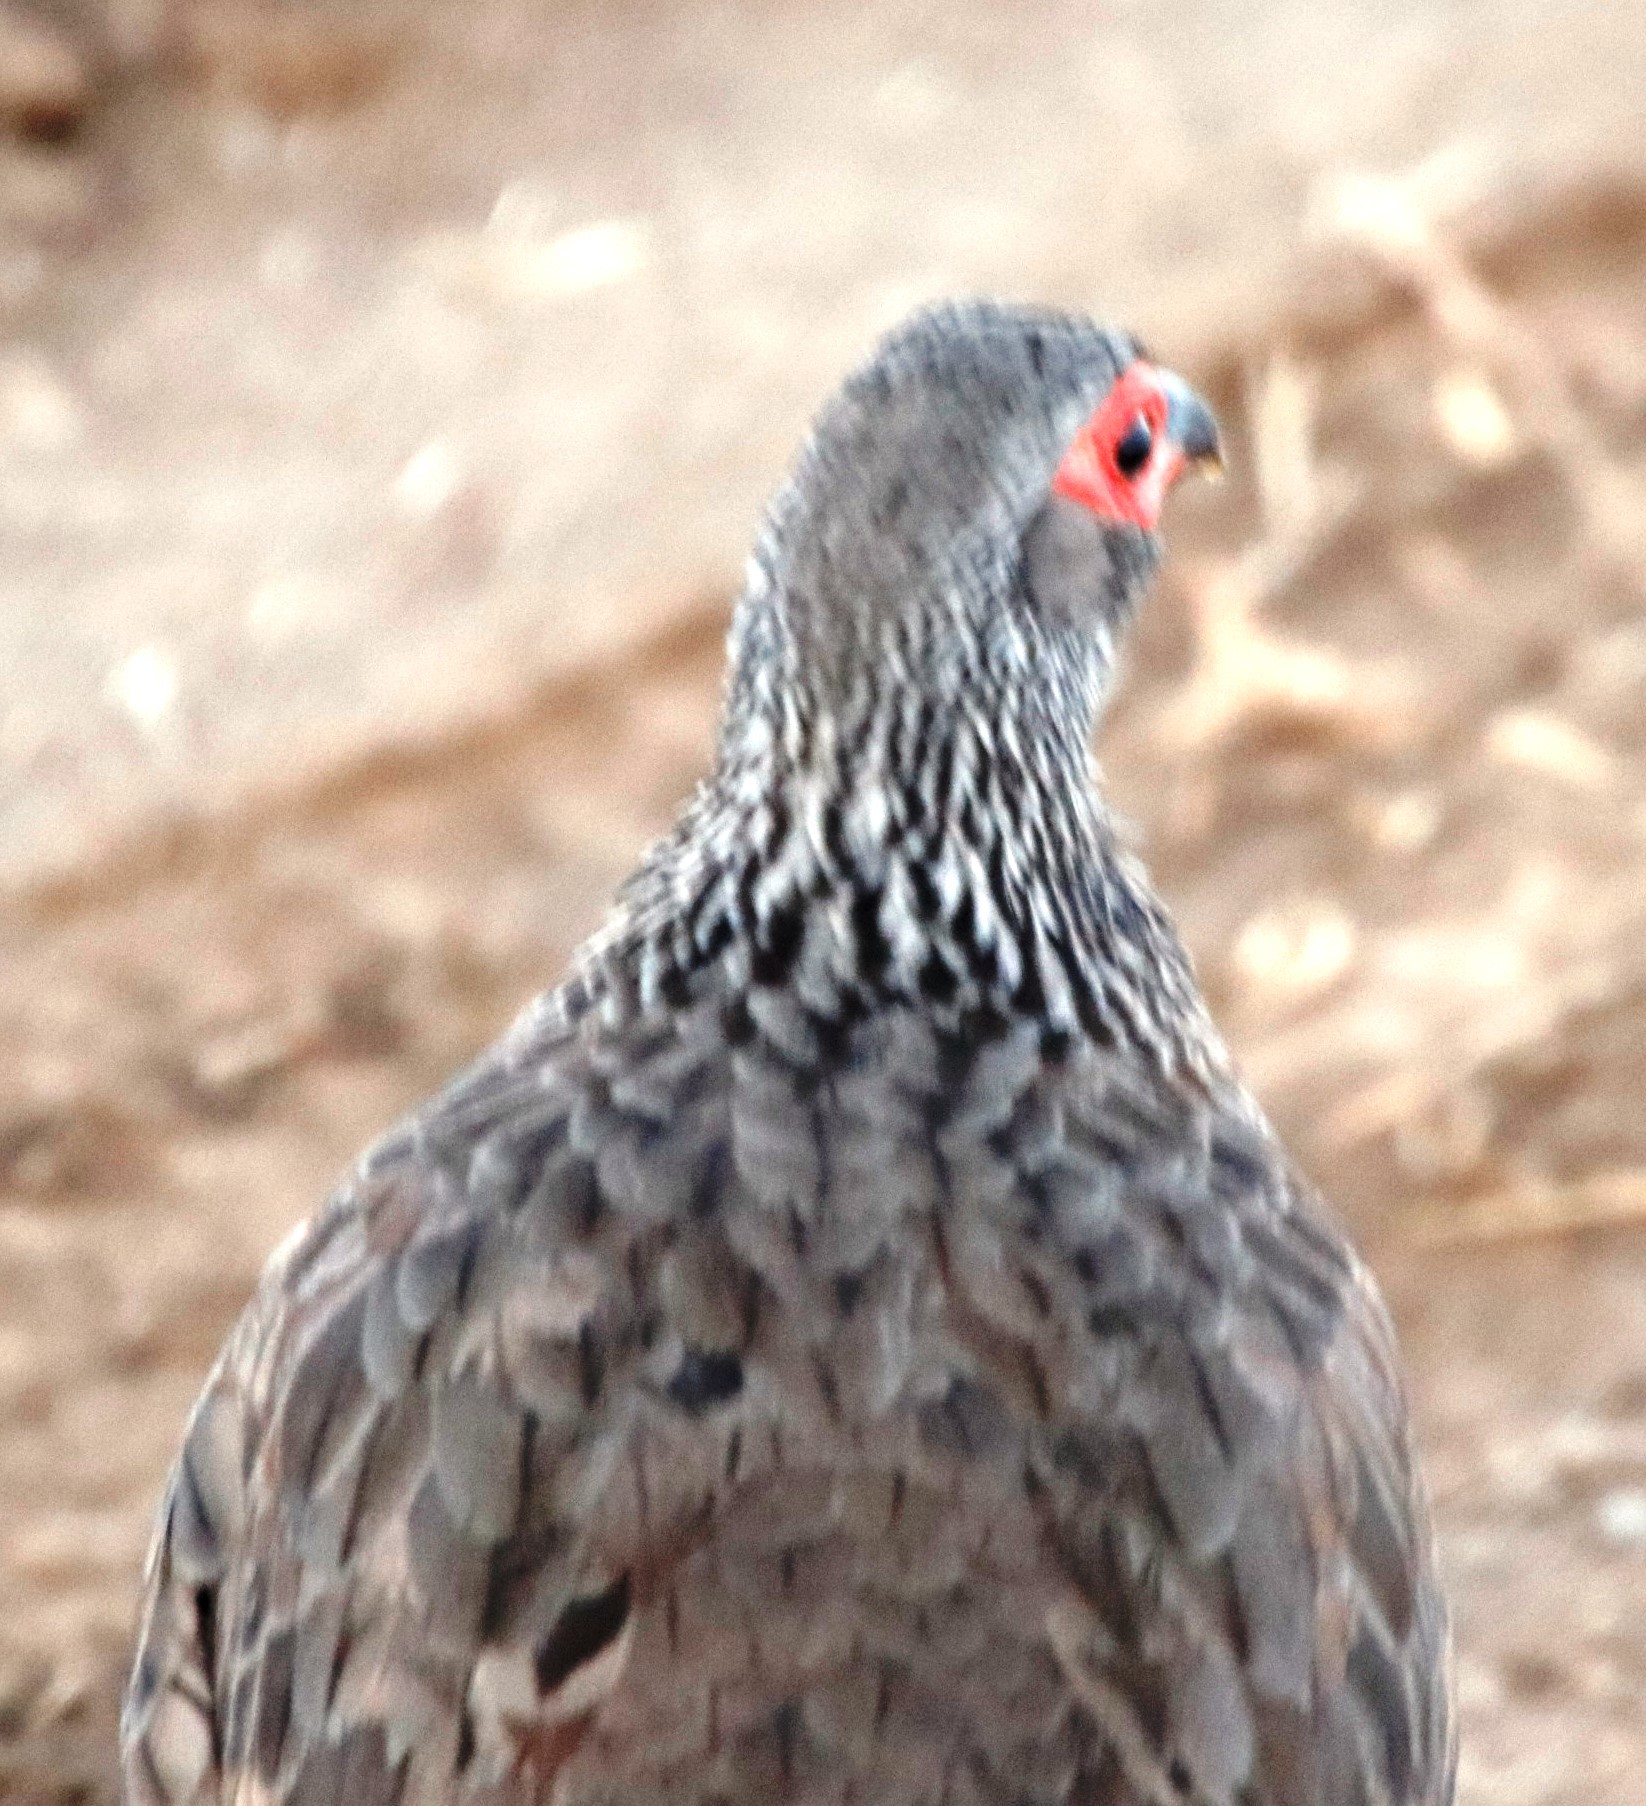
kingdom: Animalia
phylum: Chordata
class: Aves
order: Galliformes
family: Phasianidae
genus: Pternistis
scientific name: Pternistis swainsonii
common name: Swainson's spurfowl
